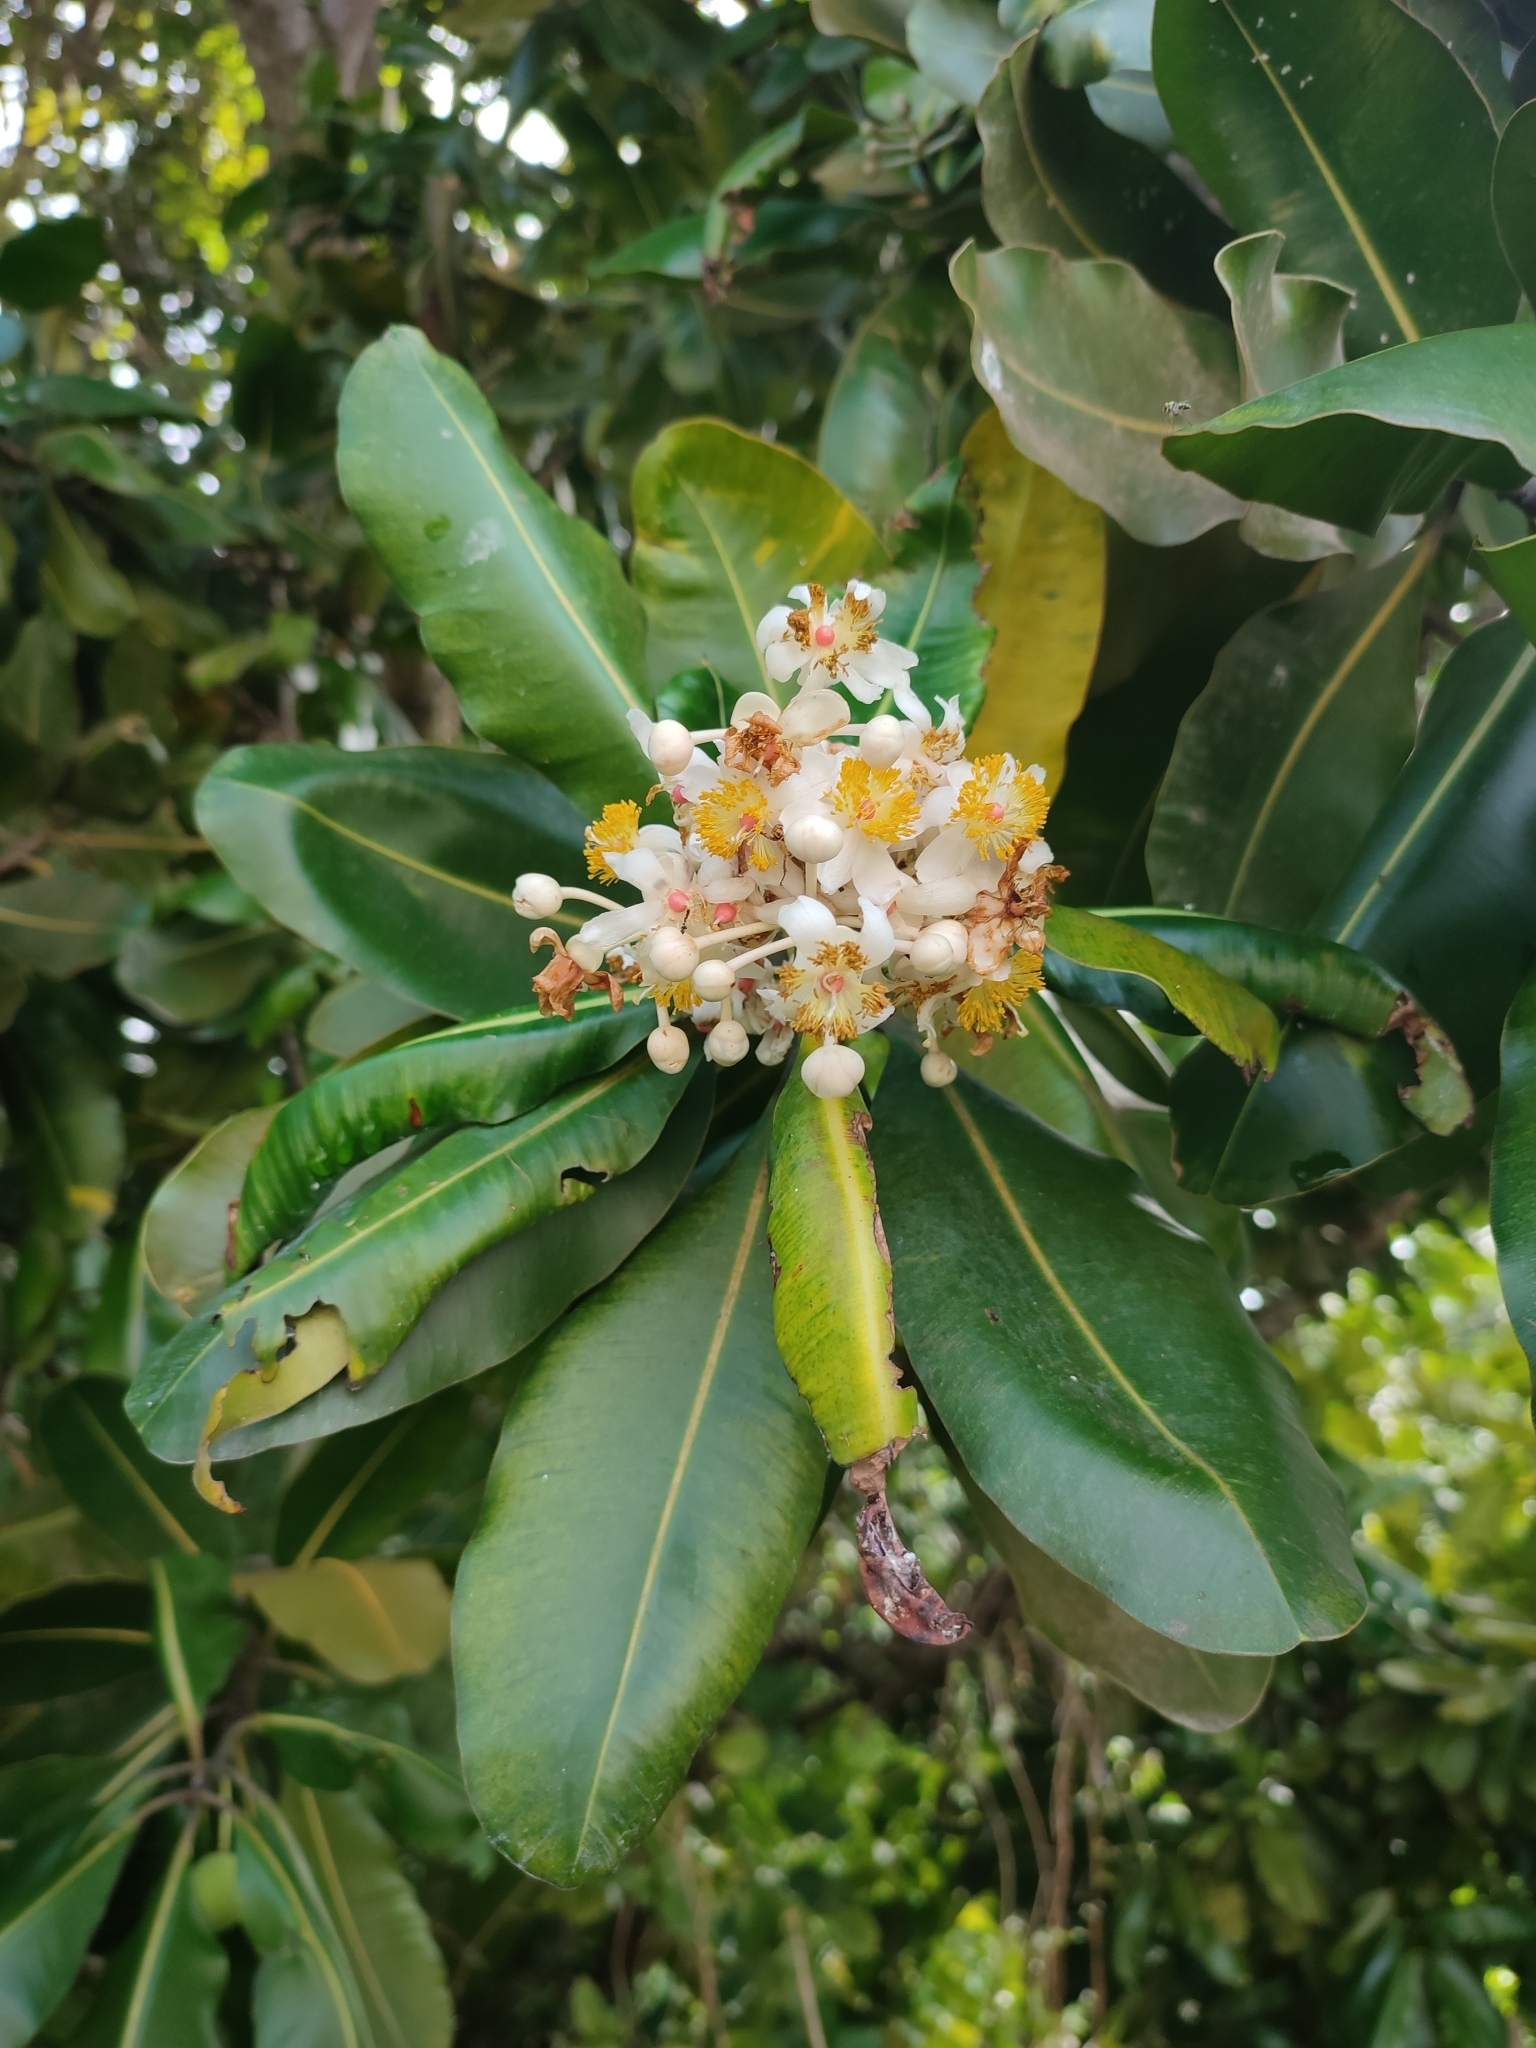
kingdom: Plantae
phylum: Tracheophyta
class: Magnoliopsida
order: Malpighiales
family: Calophyllaceae
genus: Calophyllum
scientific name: Calophyllum inophyllum
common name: Alexandrian laurel
